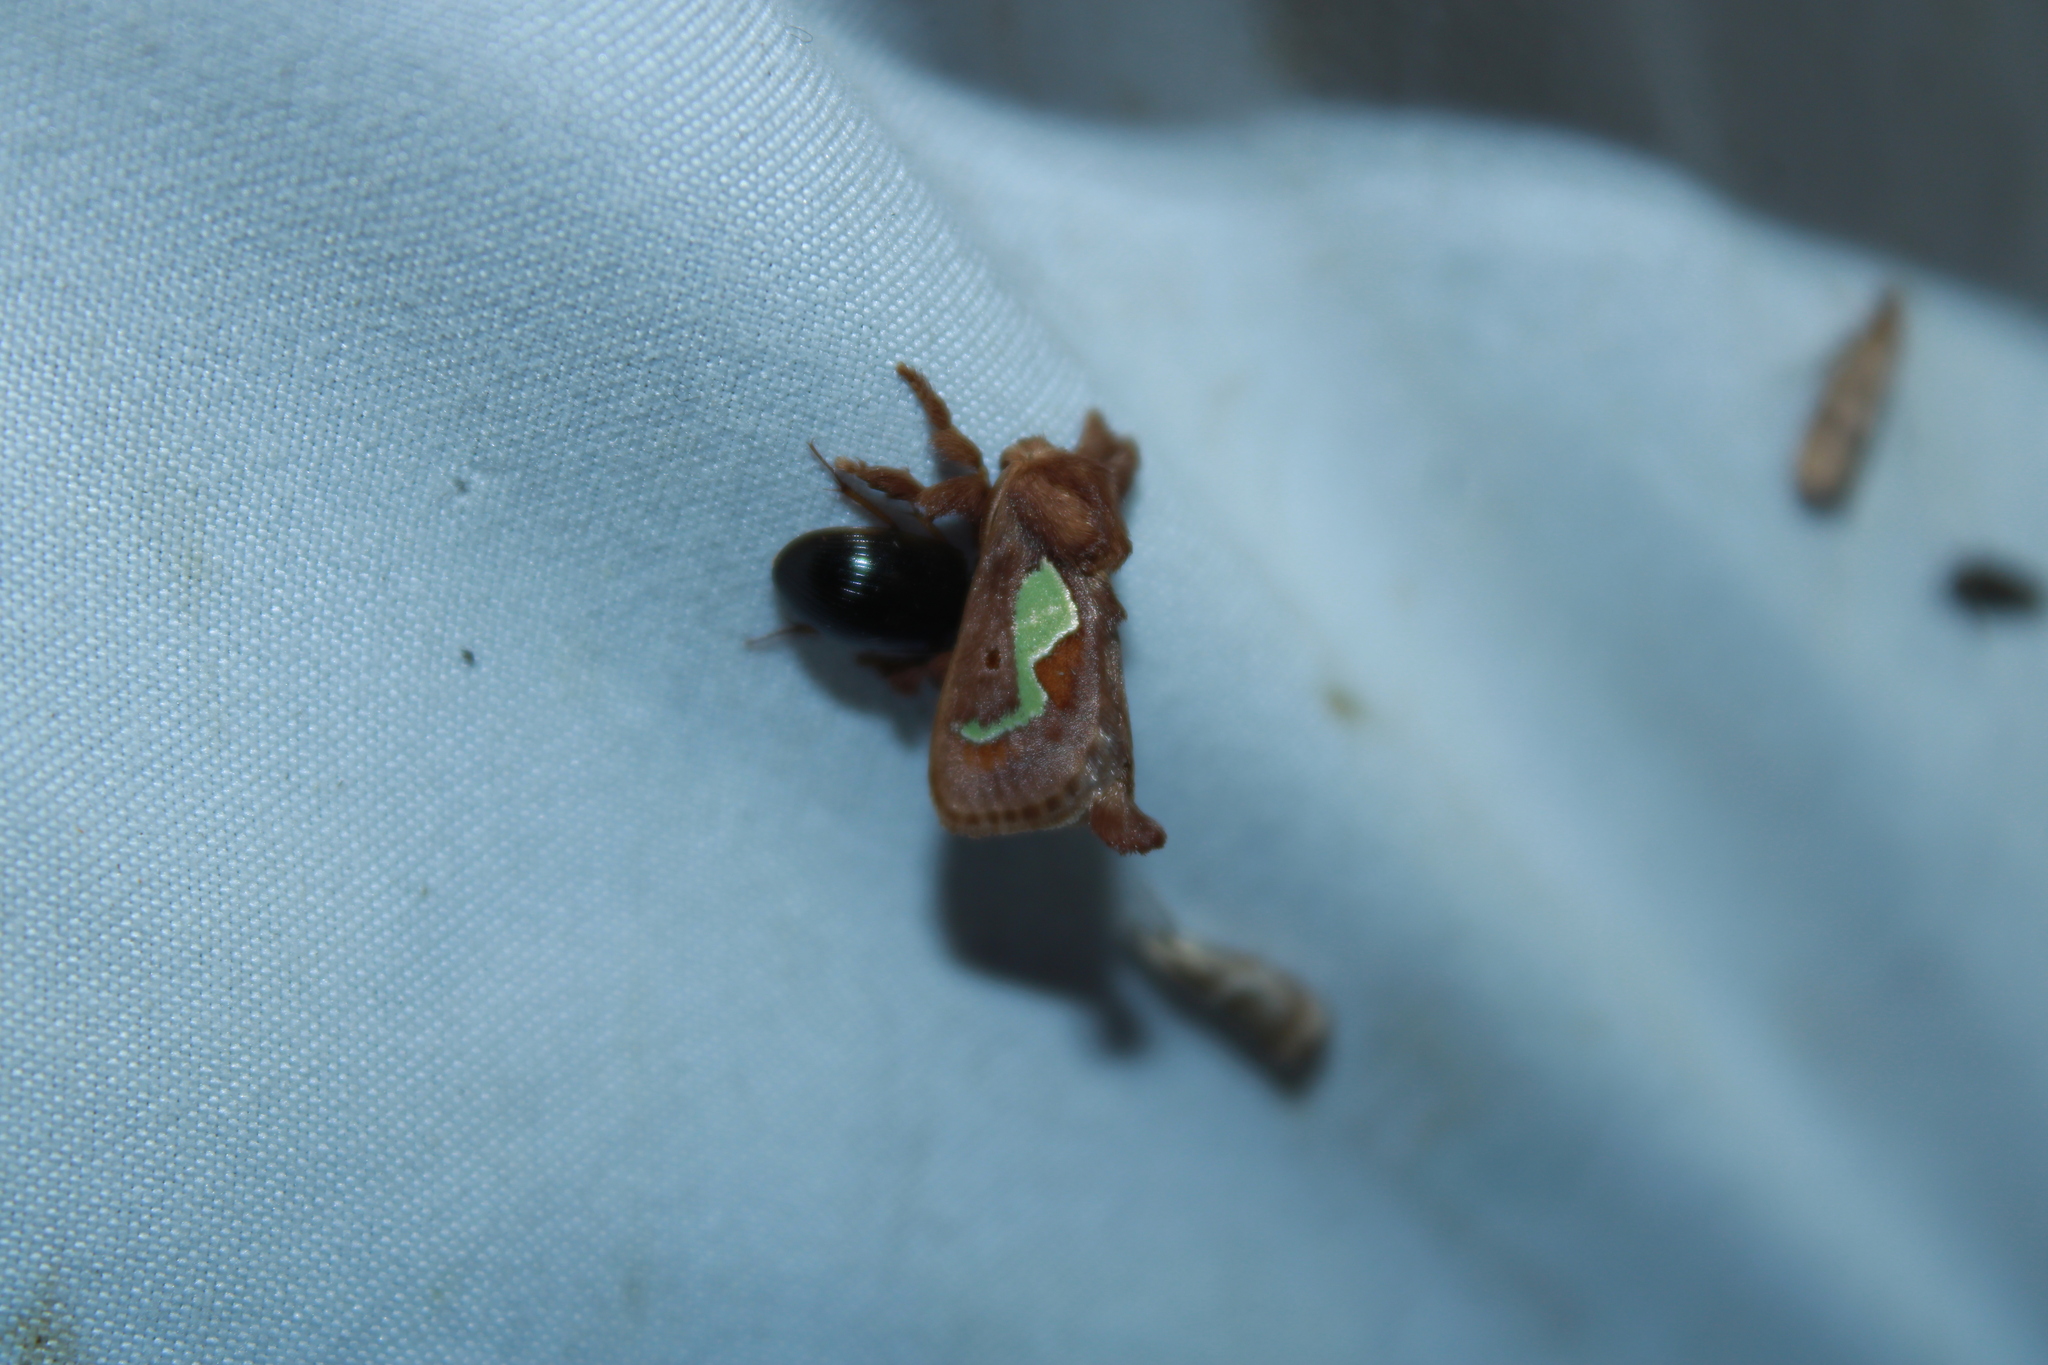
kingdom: Animalia
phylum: Arthropoda
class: Insecta
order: Lepidoptera
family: Limacodidae
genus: Euclea
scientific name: Euclea delphinii
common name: Spiny oak-slug moth
